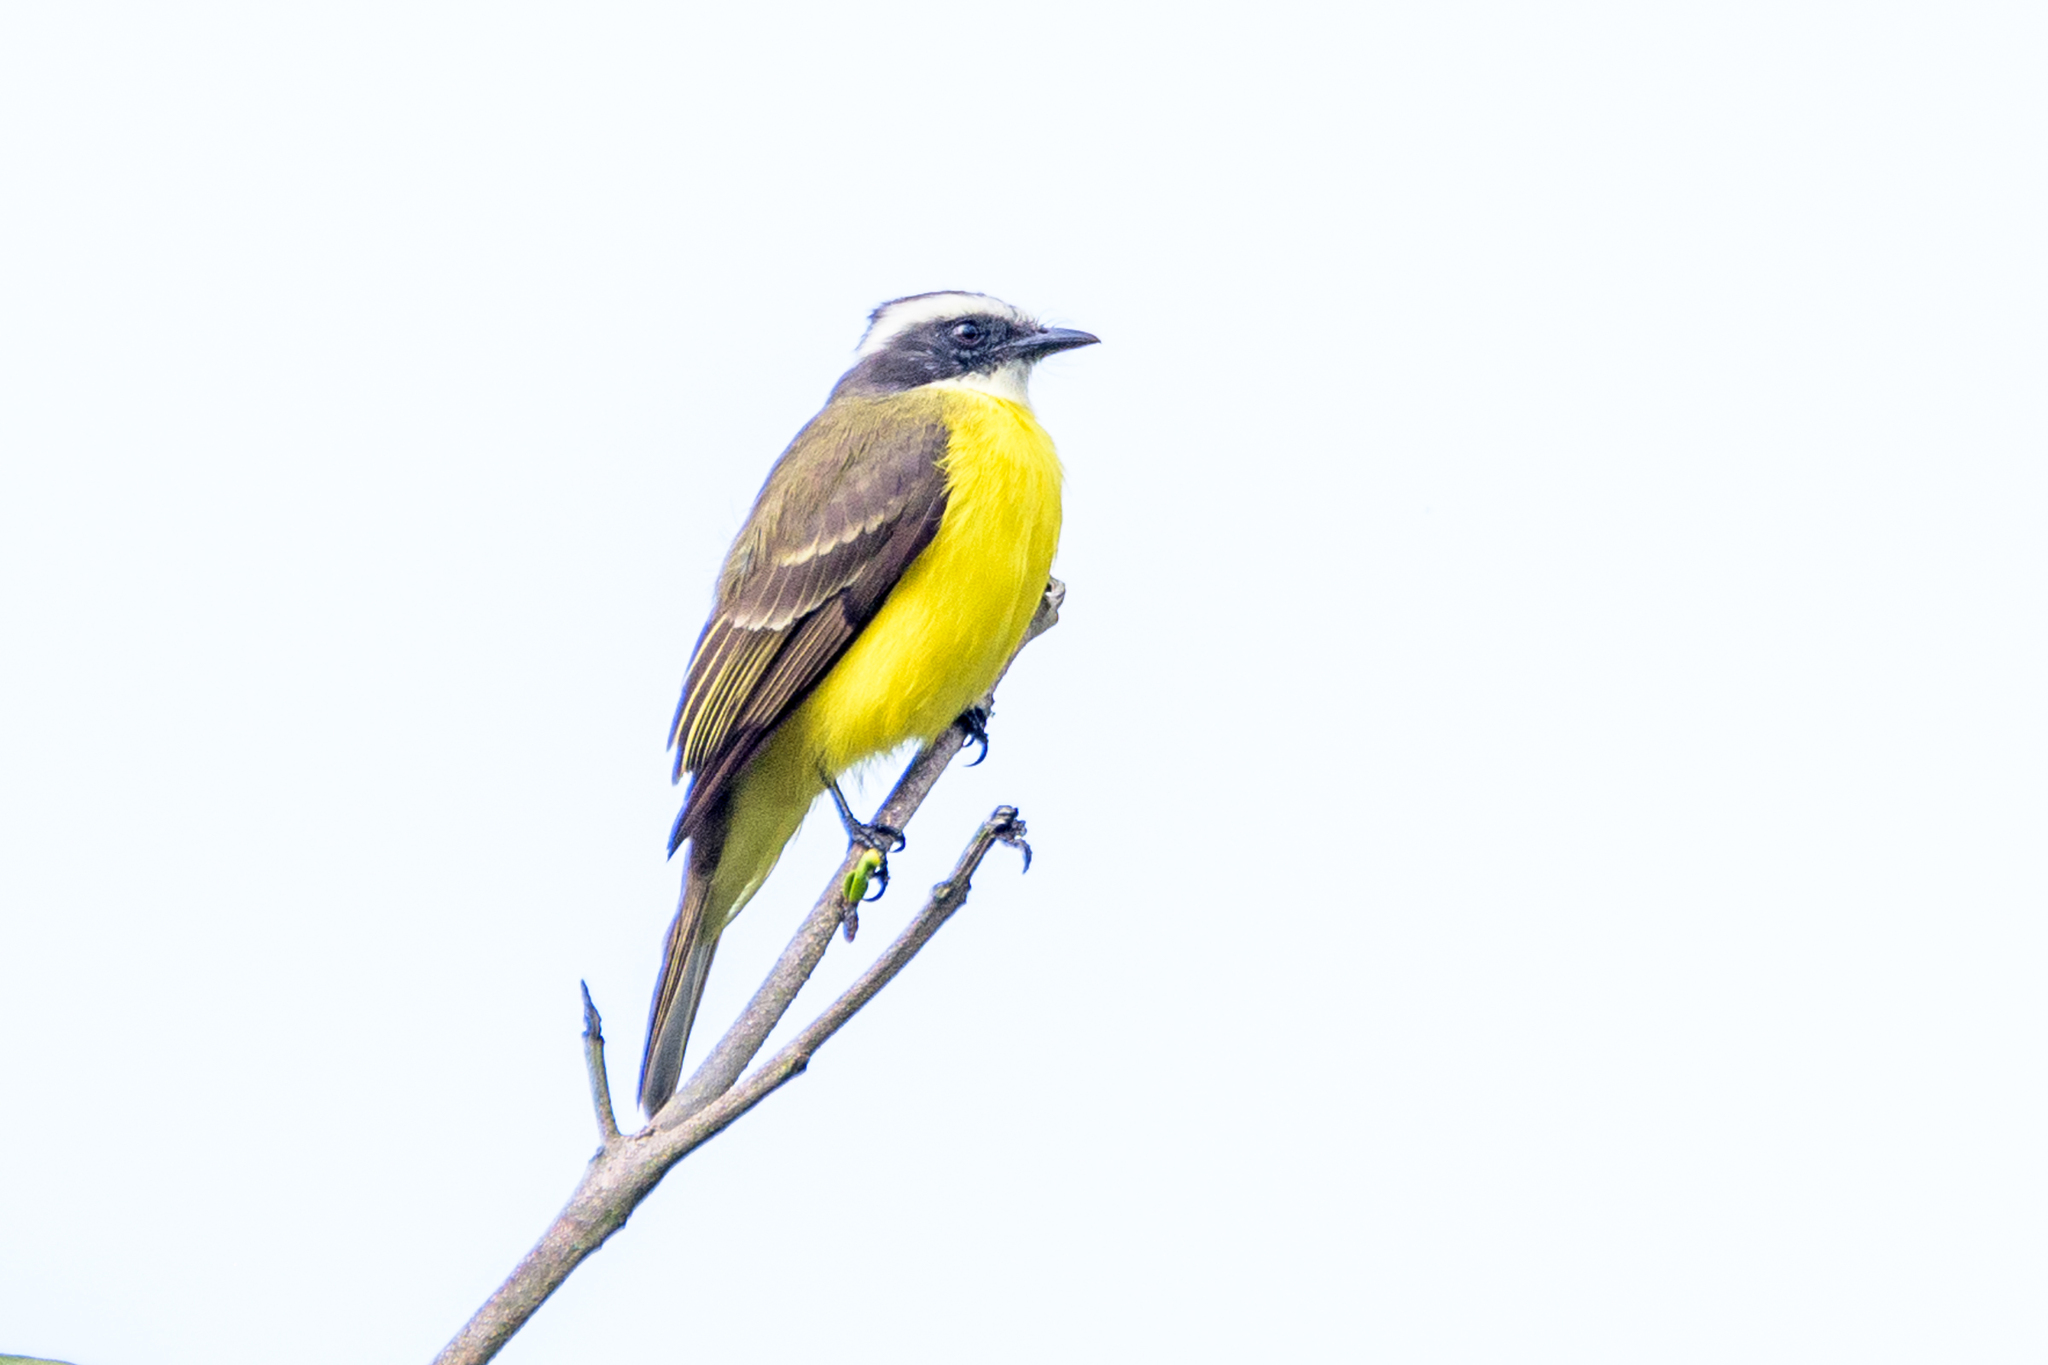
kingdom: Animalia
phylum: Chordata
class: Aves
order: Passeriformes
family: Tyrannidae
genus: Myiozetetes
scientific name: Myiozetetes similis
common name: Social flycatcher
